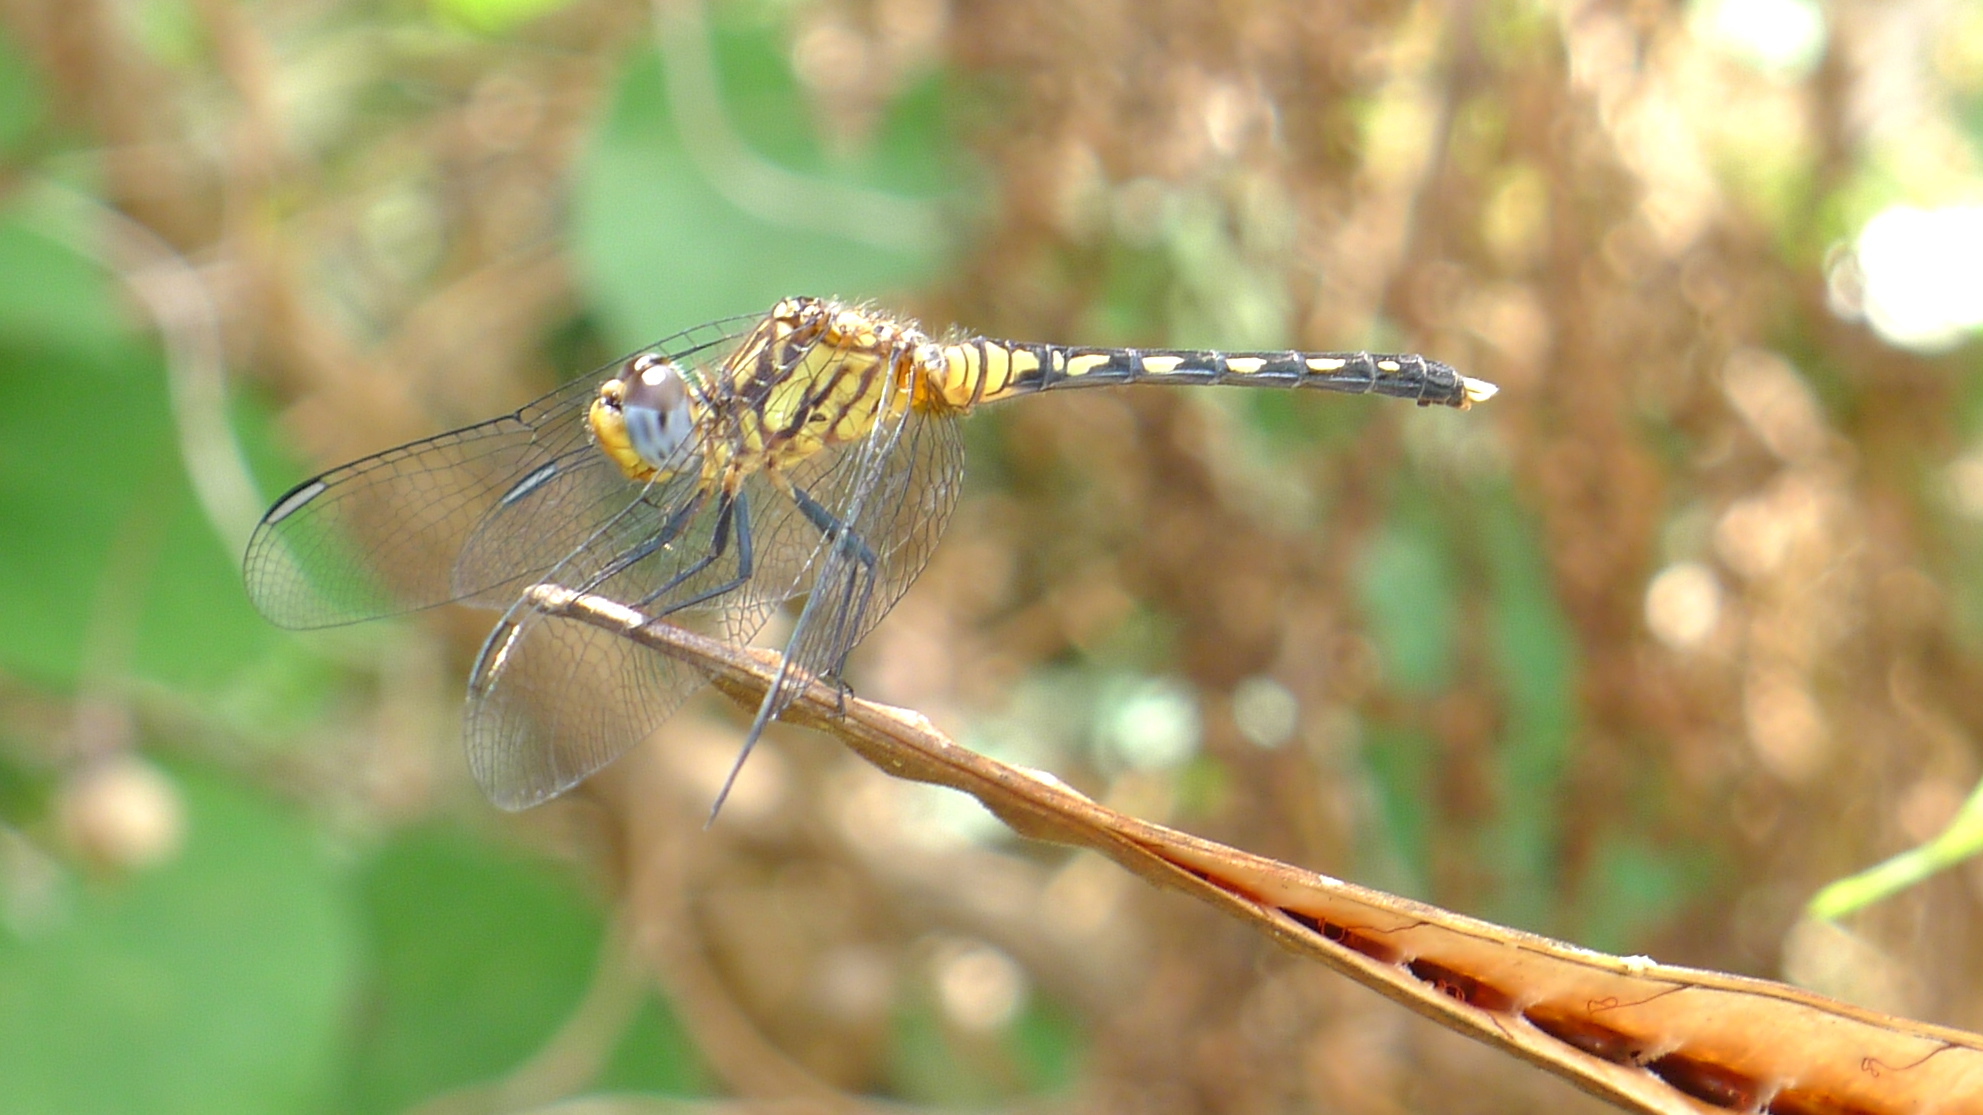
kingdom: Animalia
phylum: Arthropoda
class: Insecta
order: Odonata
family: Libellulidae
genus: Diplacodes
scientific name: Diplacodes lefebvrii
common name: Black percher
